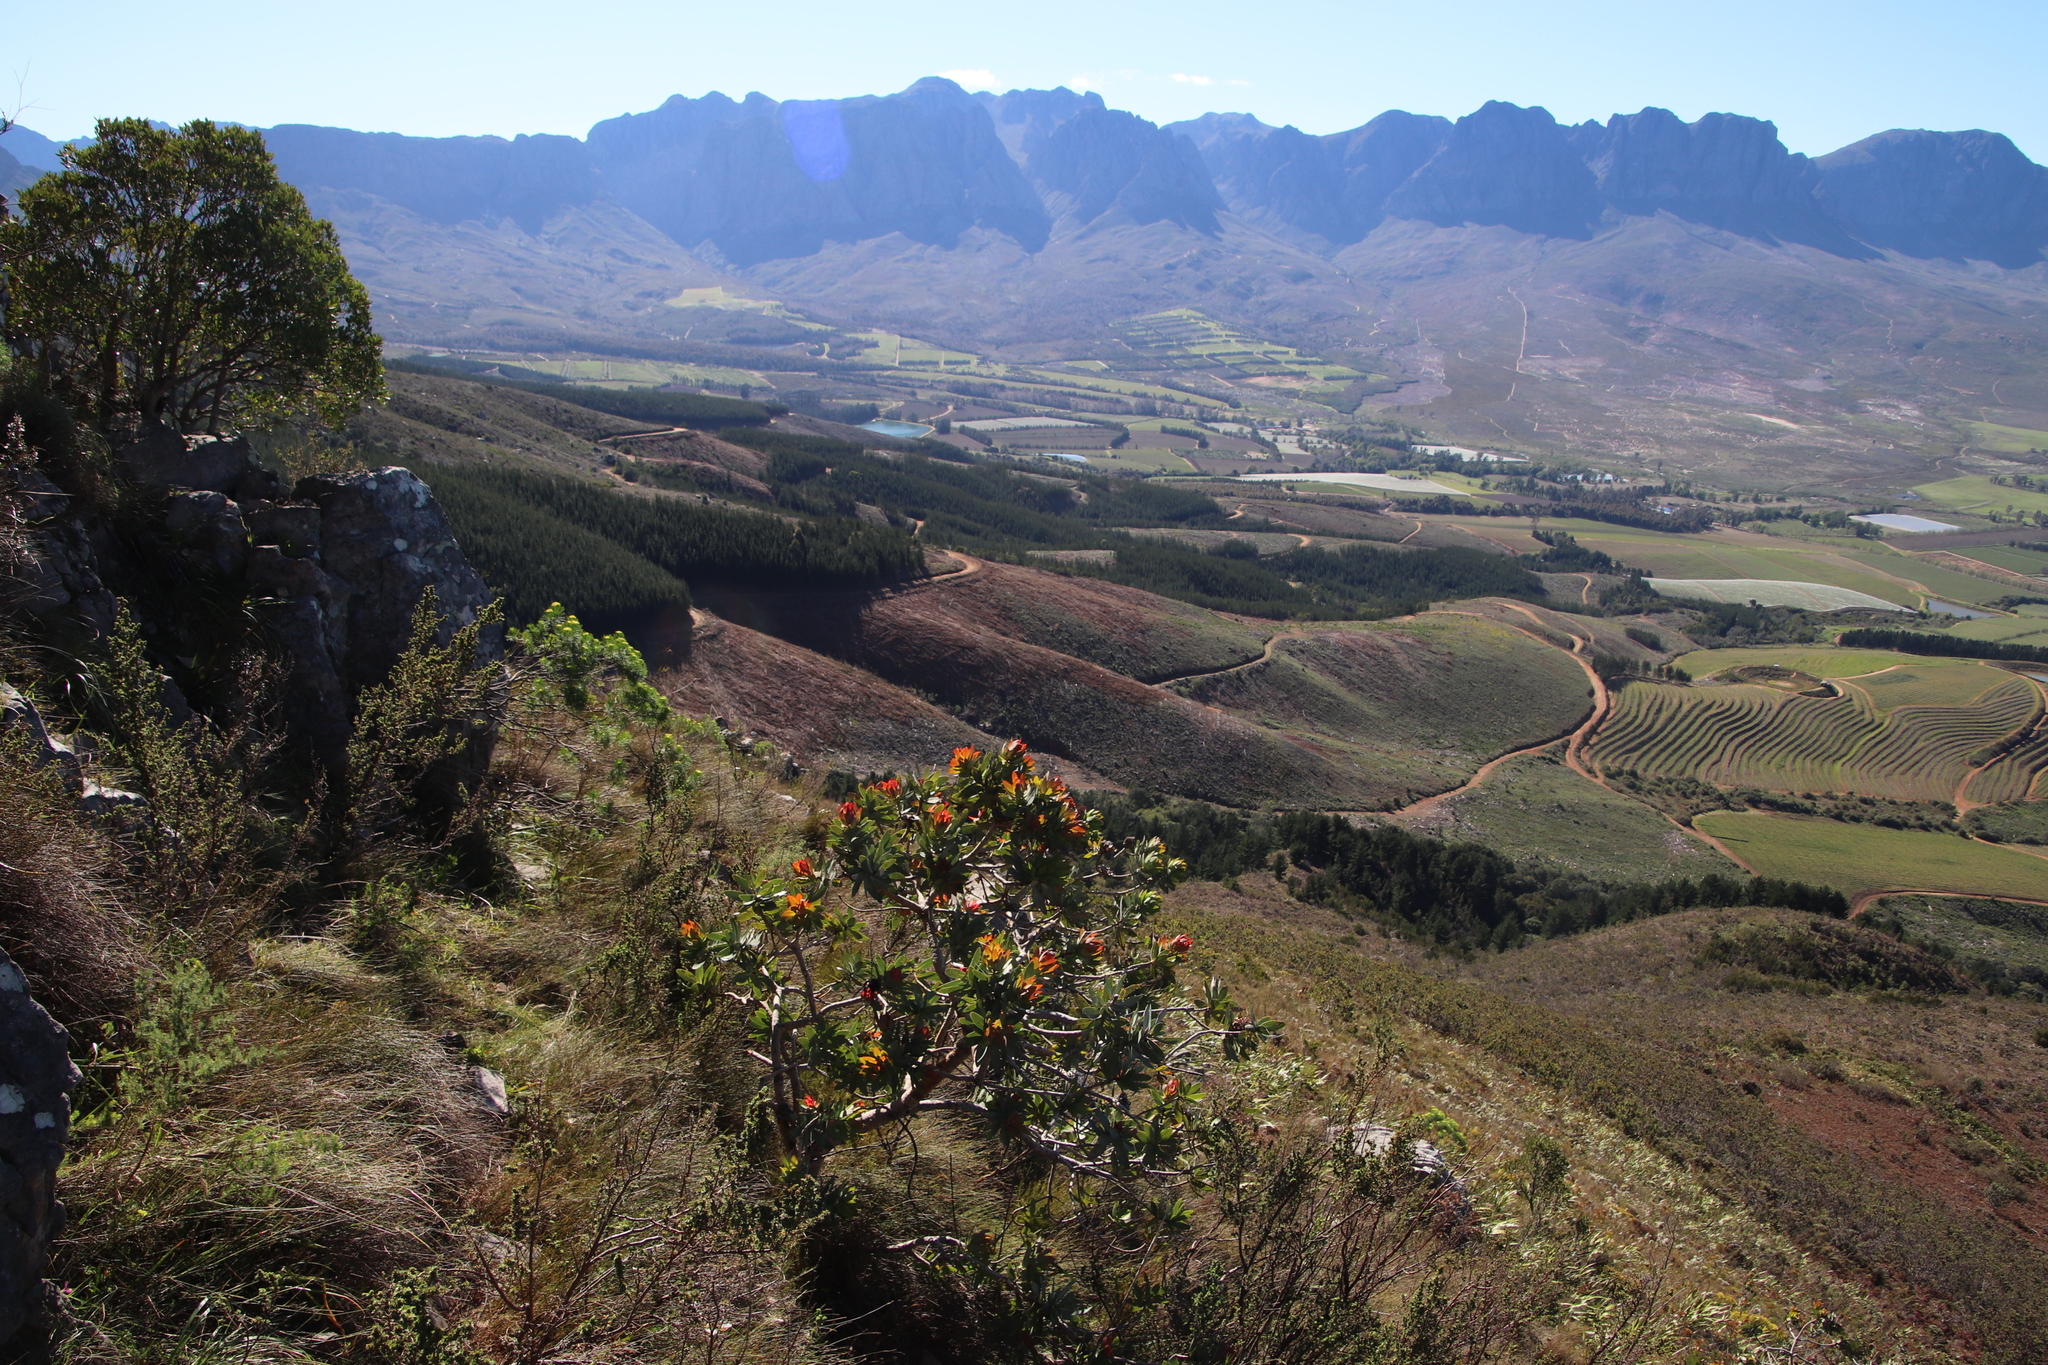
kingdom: Plantae
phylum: Tracheophyta
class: Magnoliopsida
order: Proteales
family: Proteaceae
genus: Protea
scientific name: Protea nitida
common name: Tree protea
